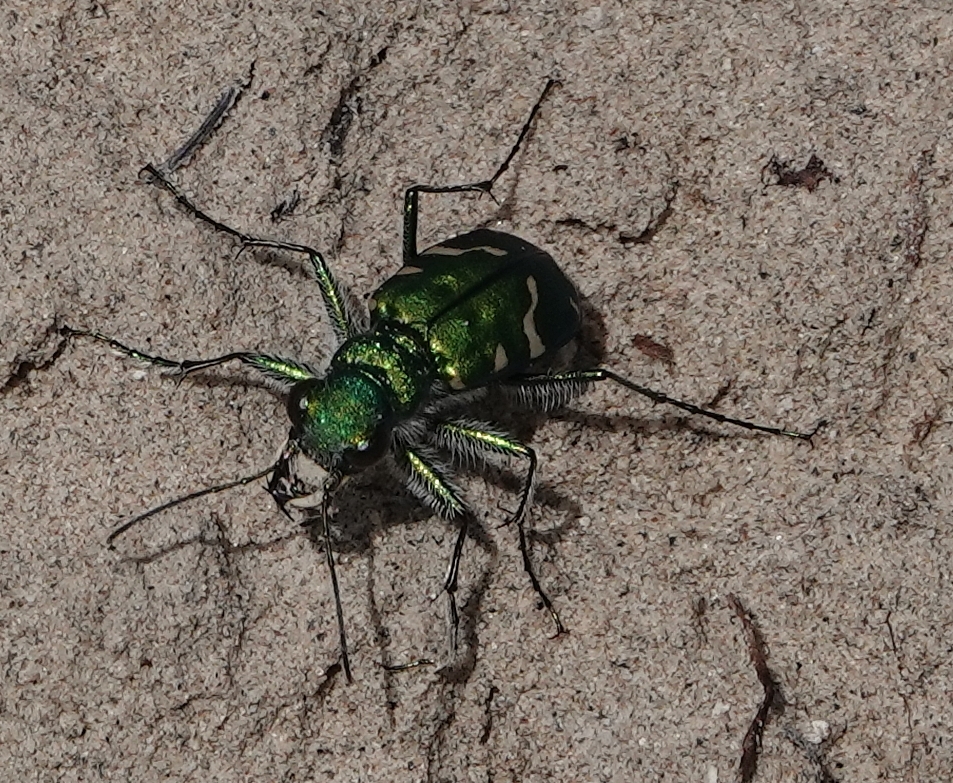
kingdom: Animalia
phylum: Arthropoda
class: Insecta
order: Coleoptera
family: Carabidae
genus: Cicindela
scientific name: Cicindela denverensis
